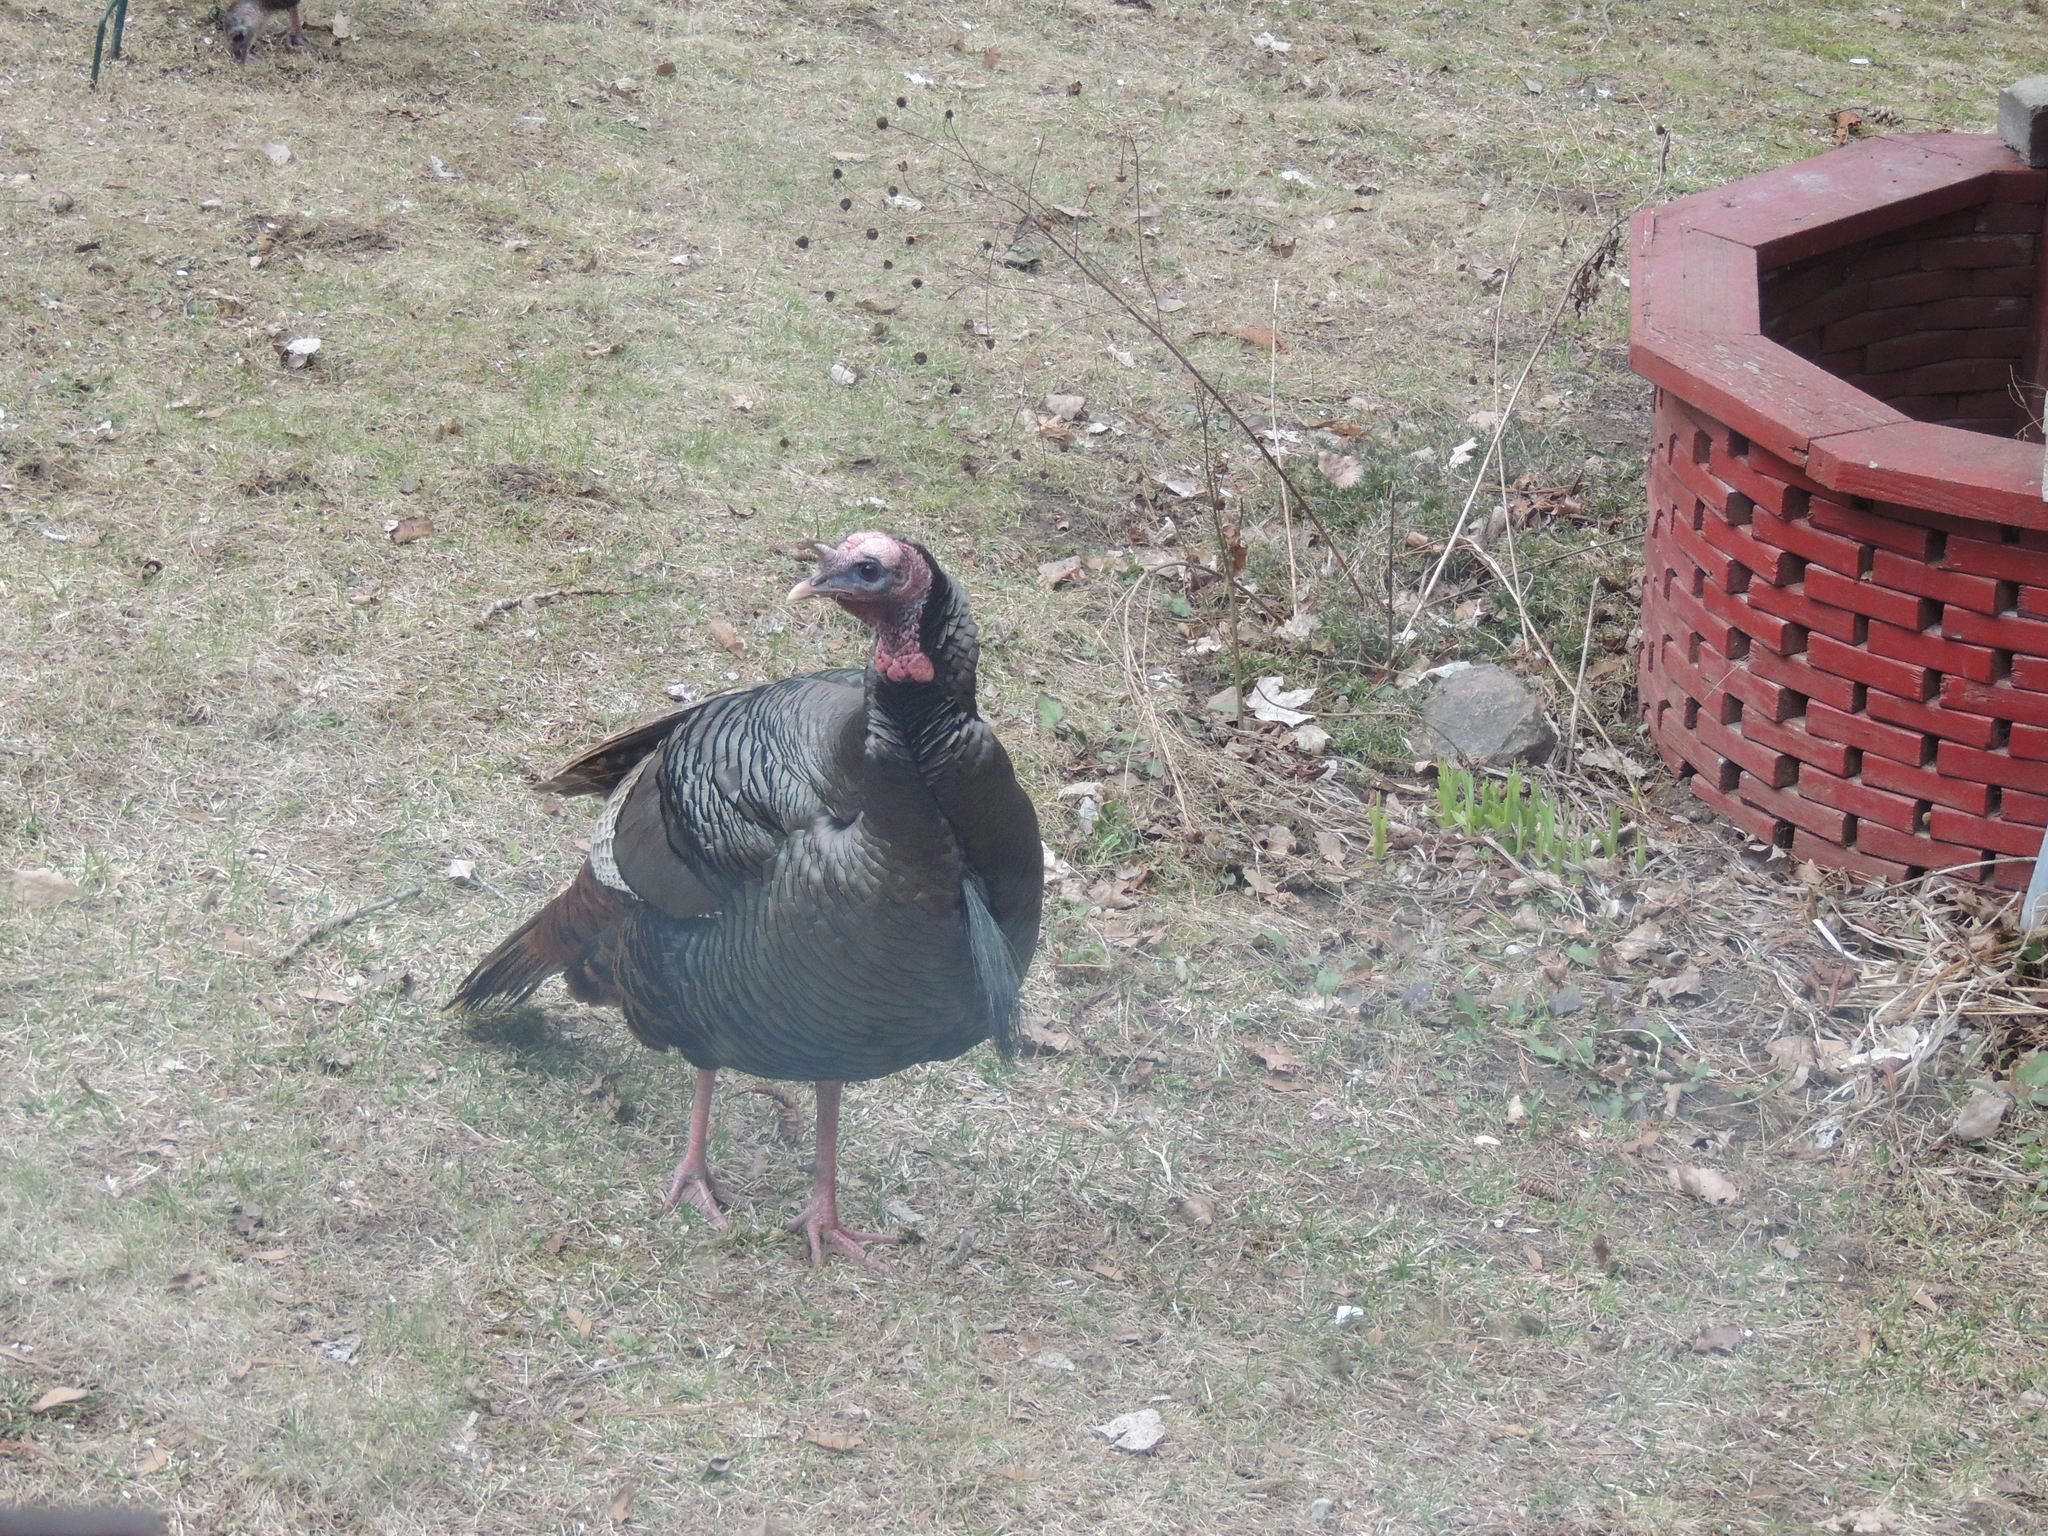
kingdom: Animalia
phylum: Chordata
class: Aves
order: Galliformes
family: Phasianidae
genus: Meleagris
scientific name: Meleagris gallopavo
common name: Wild turkey
